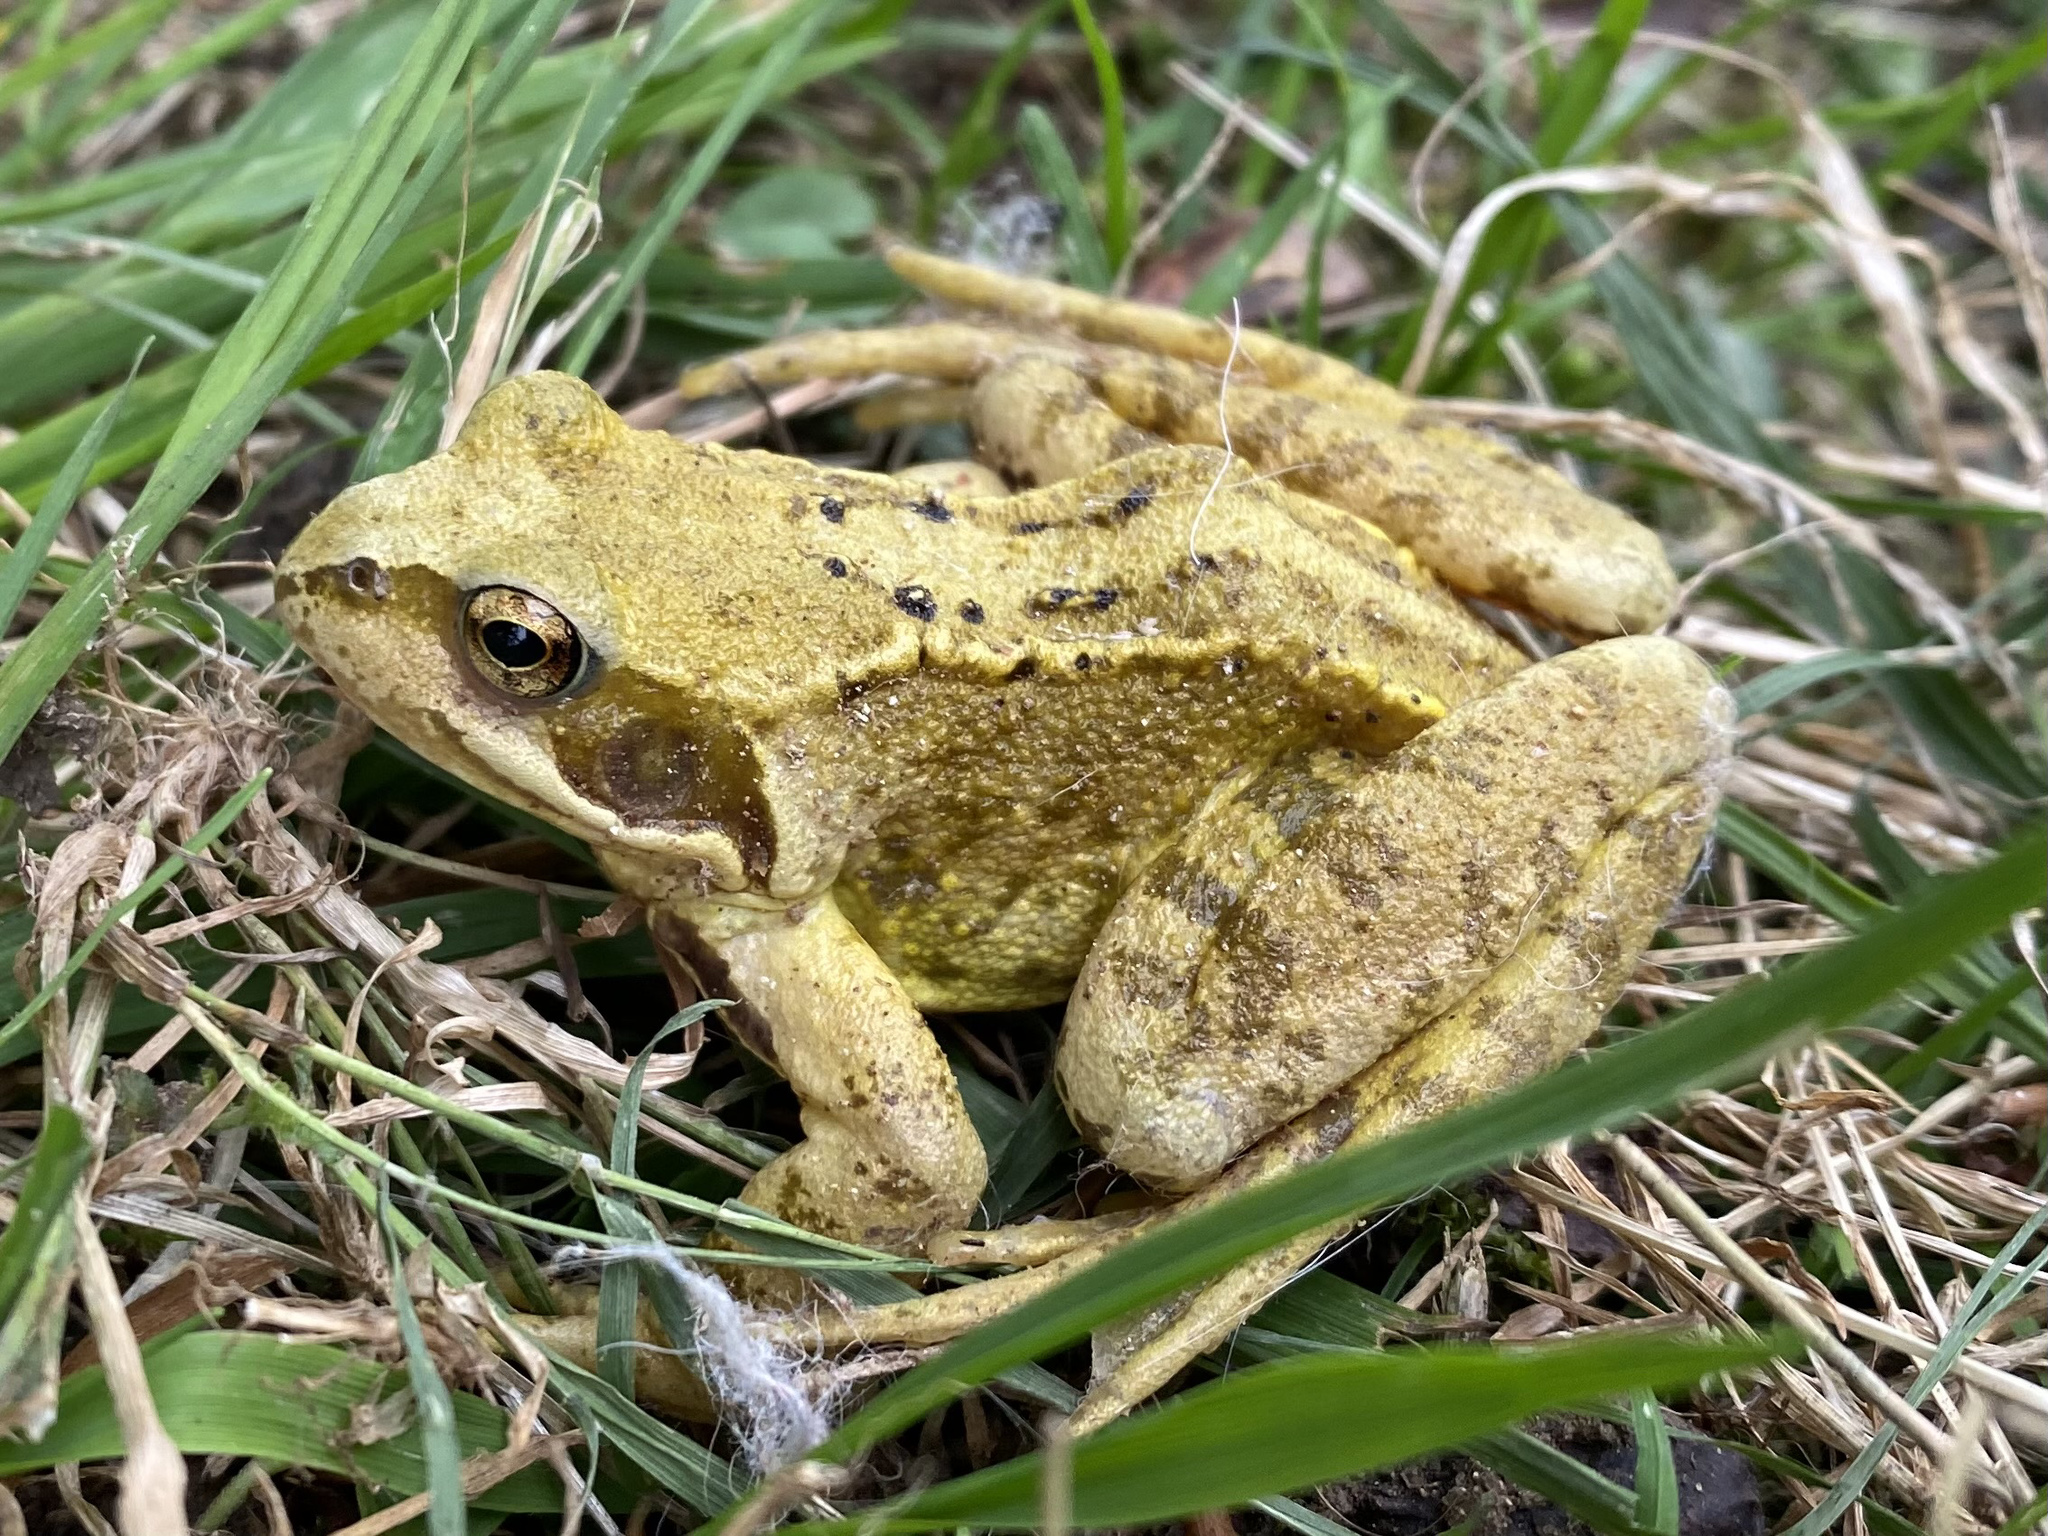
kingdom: Animalia
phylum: Chordata
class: Amphibia
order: Anura
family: Ranidae
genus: Rana
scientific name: Rana temporaria
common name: Common frog
